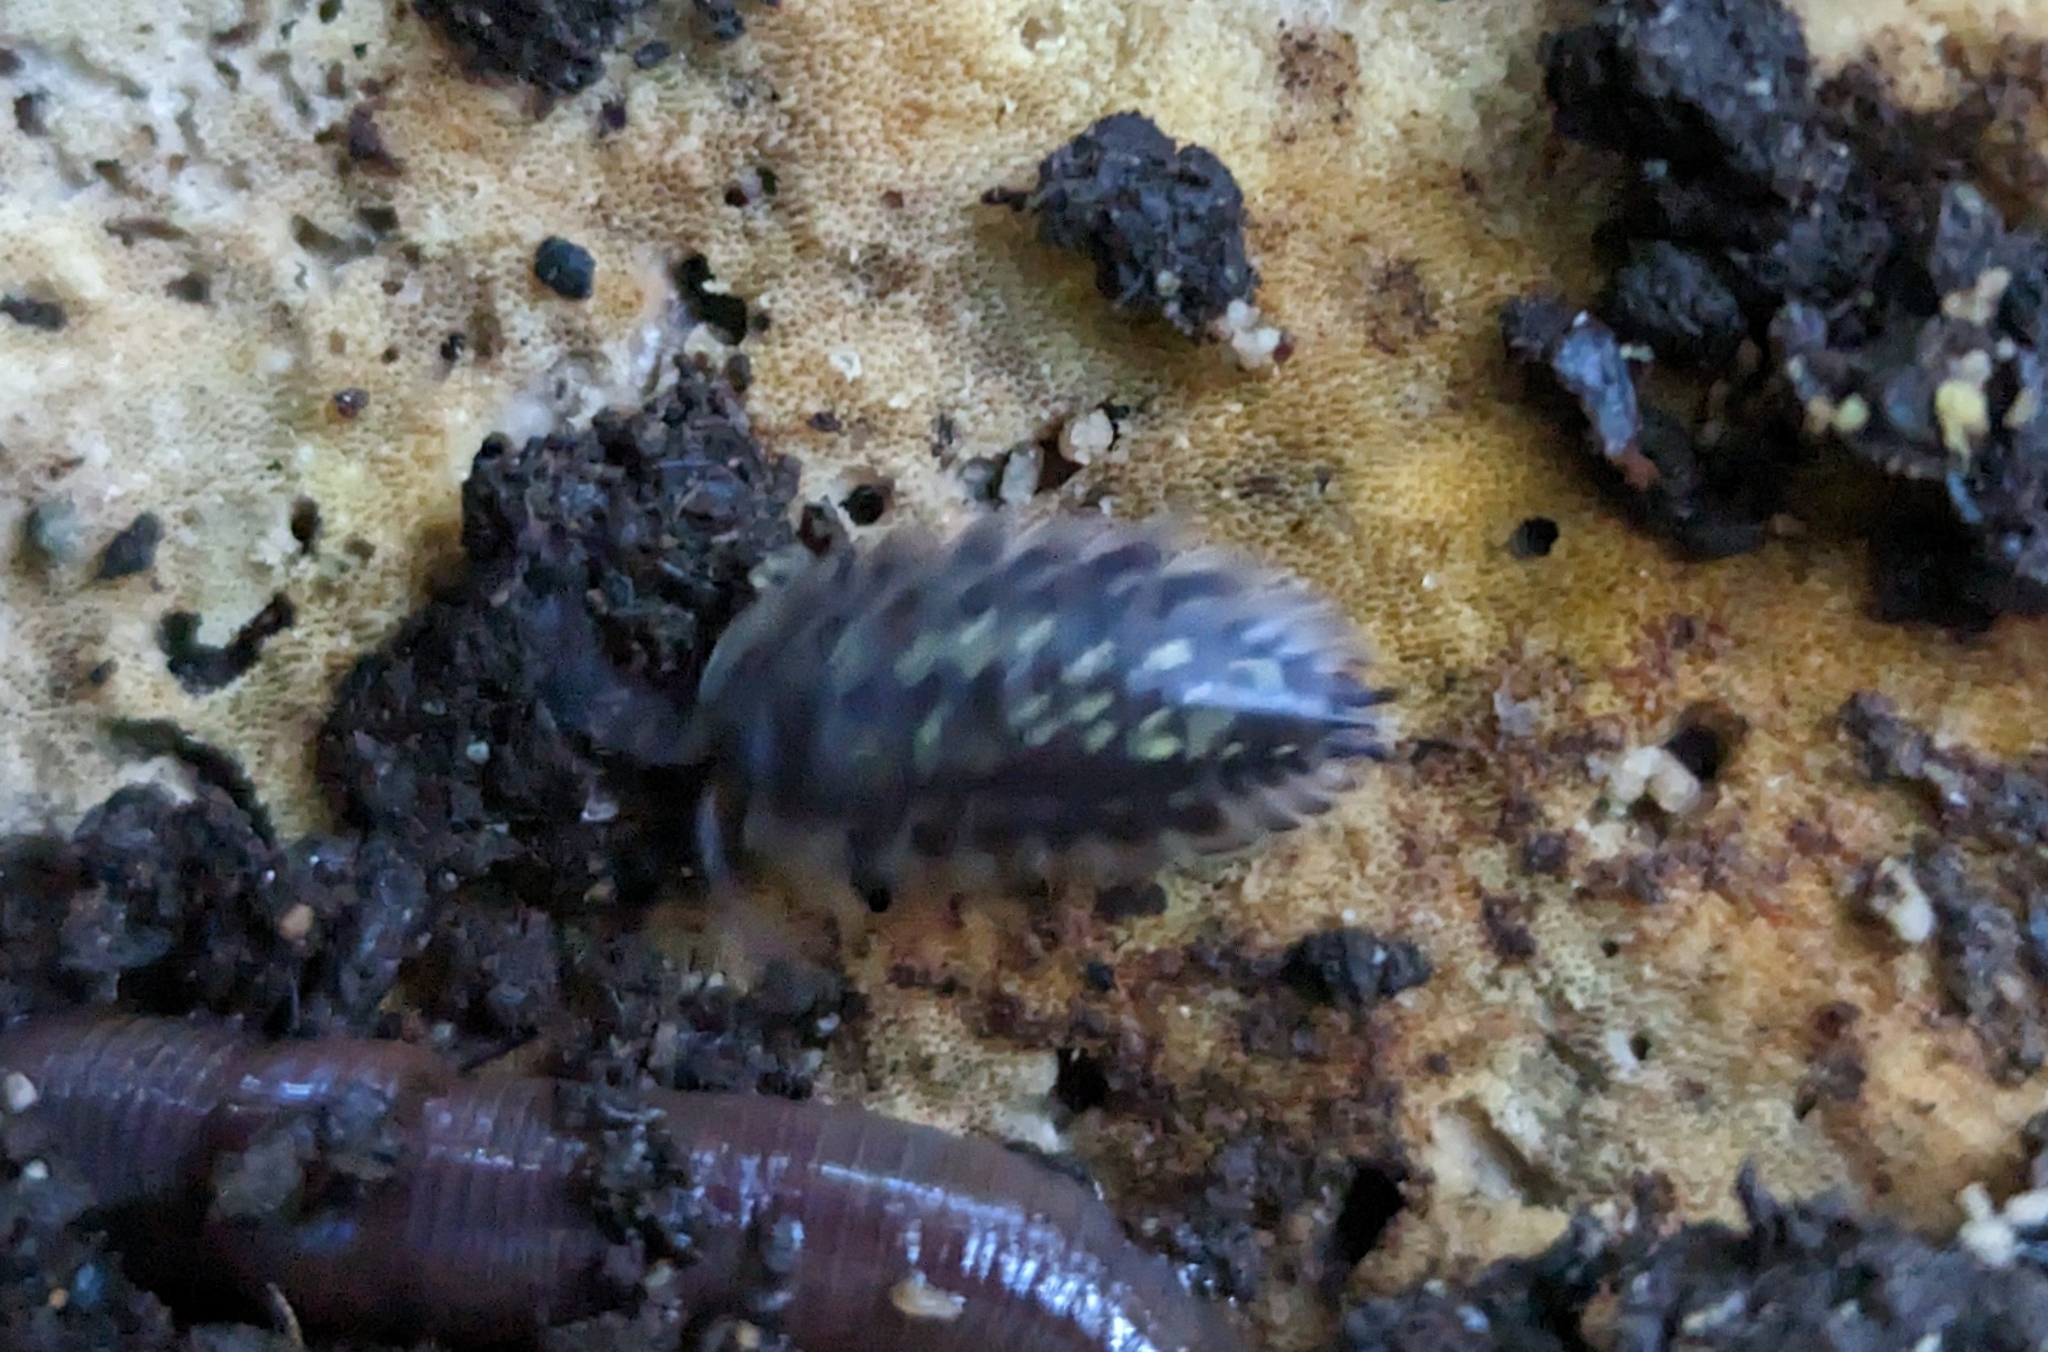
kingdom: Animalia
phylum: Arthropoda
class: Malacostraca
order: Isopoda
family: Oniscidae
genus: Oniscus
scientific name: Oniscus asellus
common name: Common shiny woodlouse
